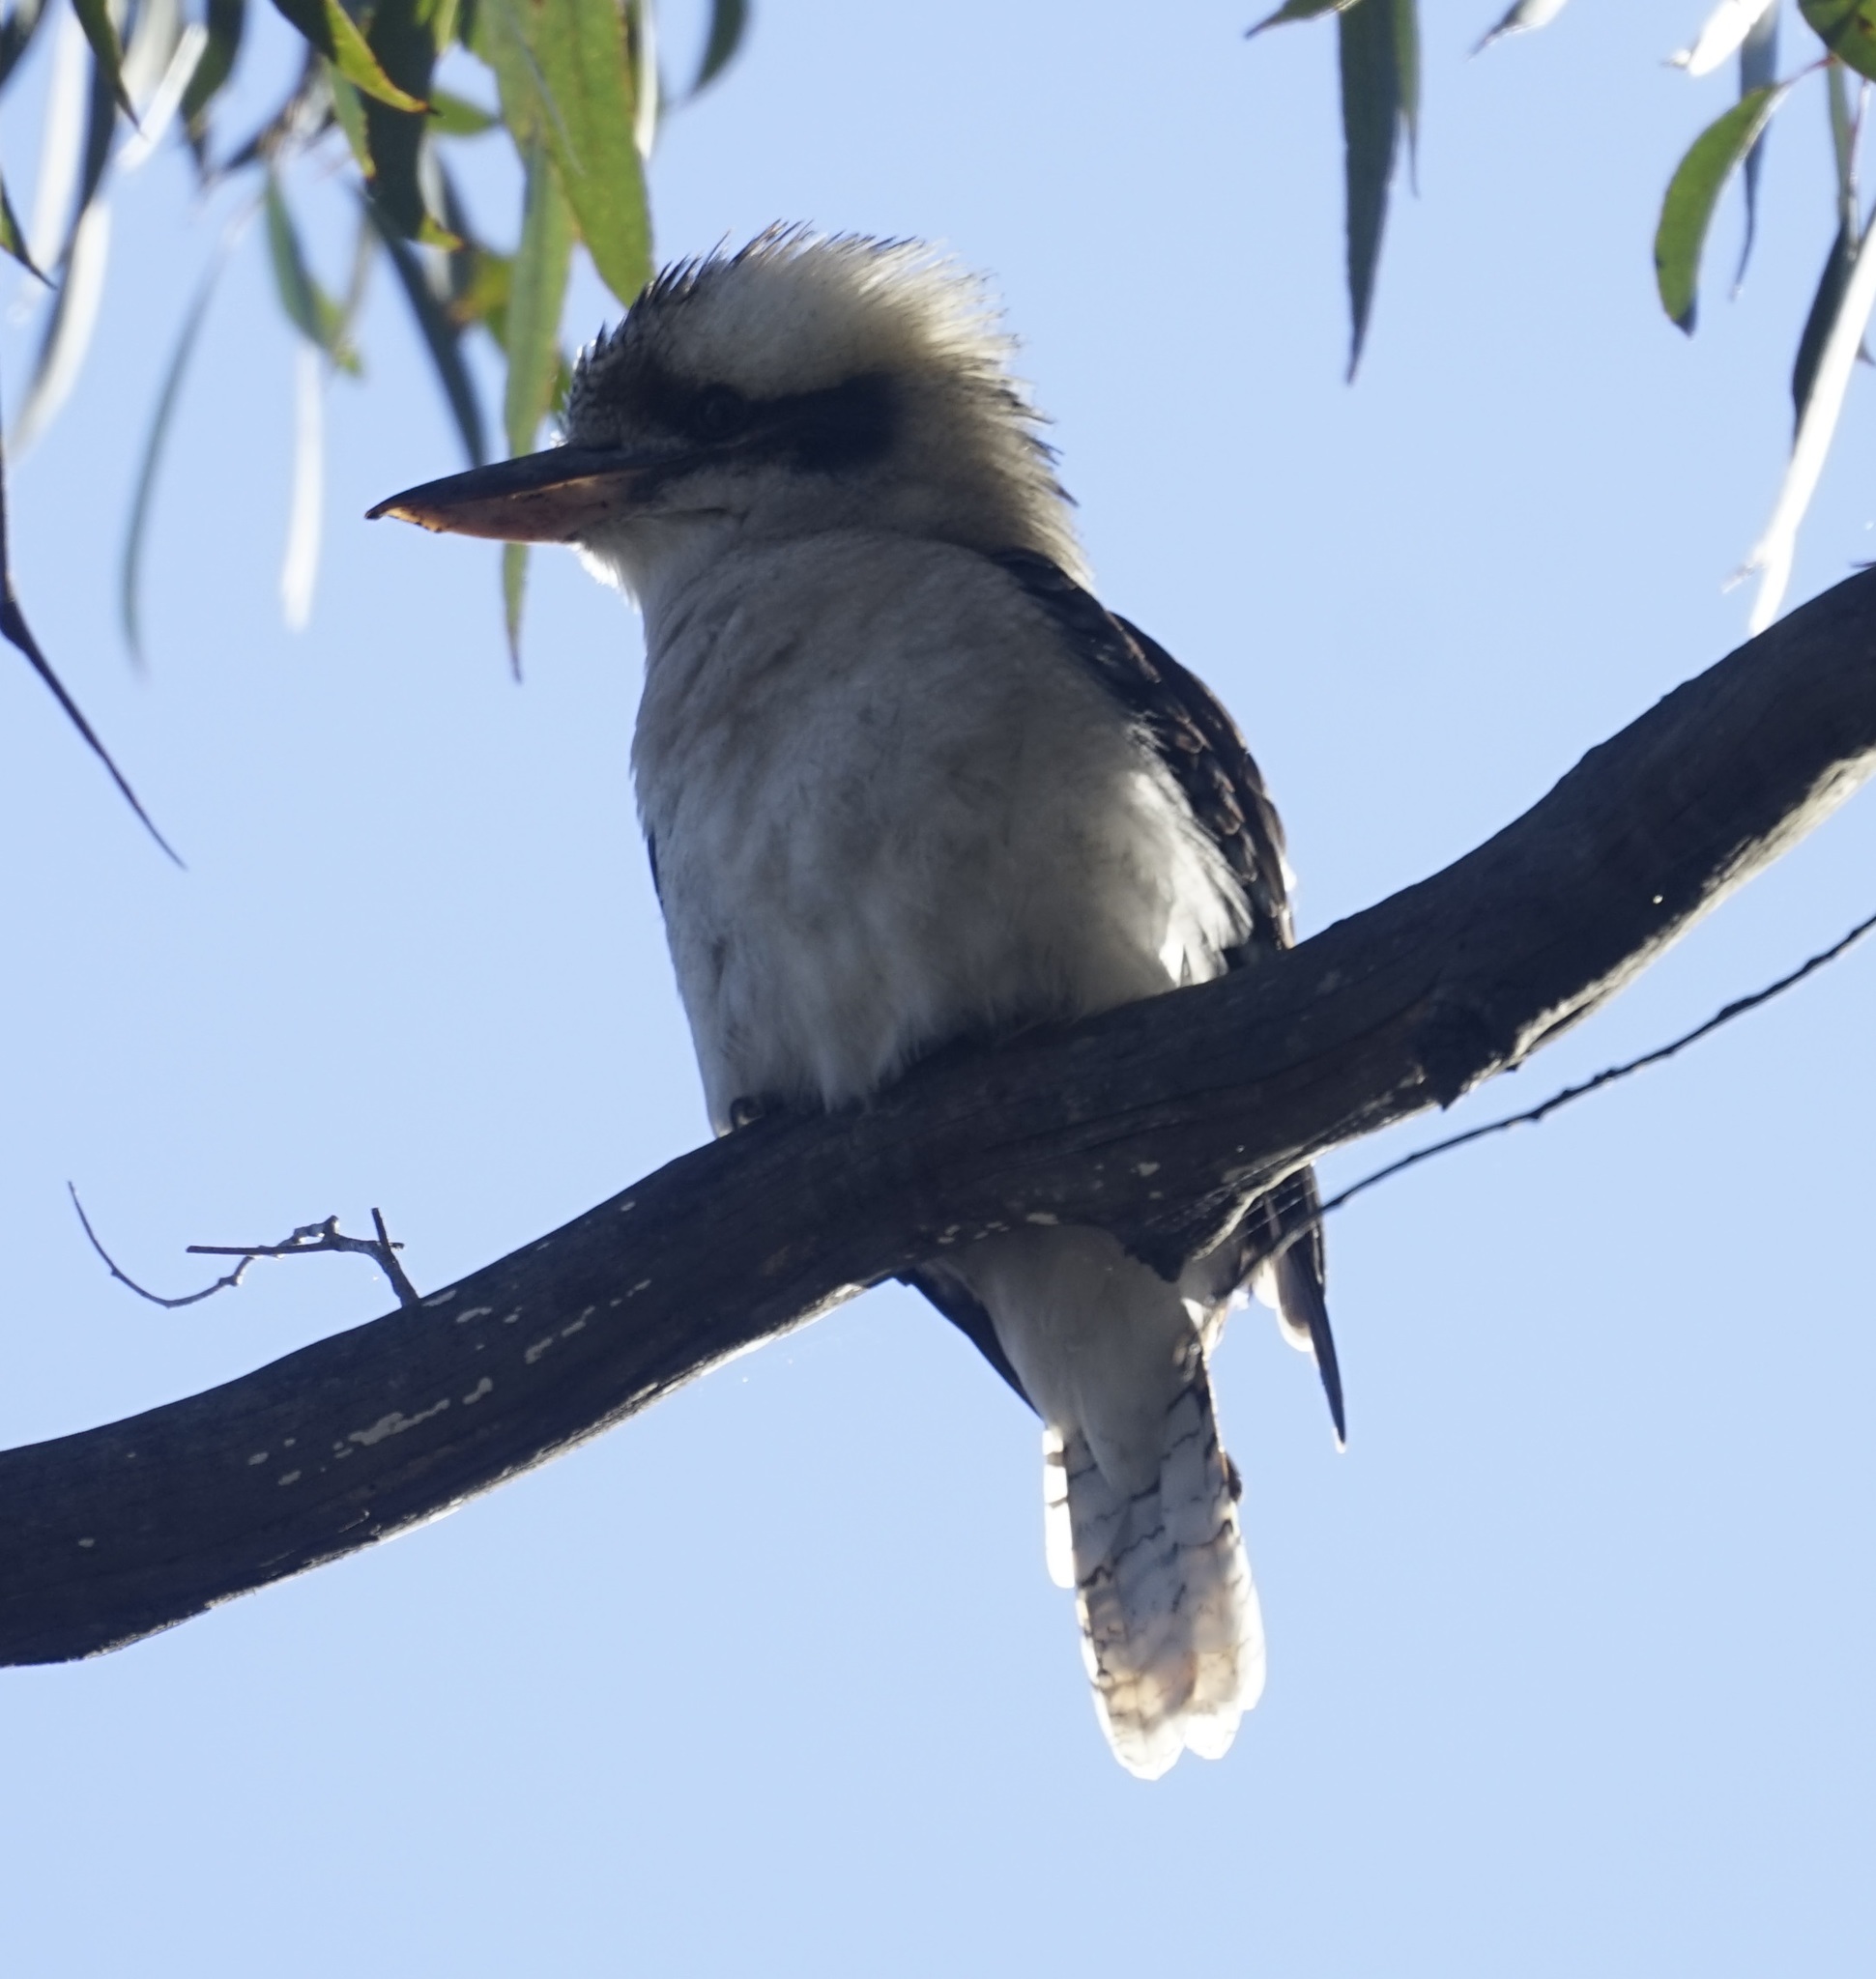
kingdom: Animalia
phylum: Chordata
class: Aves
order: Coraciiformes
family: Alcedinidae
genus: Dacelo
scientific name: Dacelo novaeguineae
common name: Laughing kookaburra
